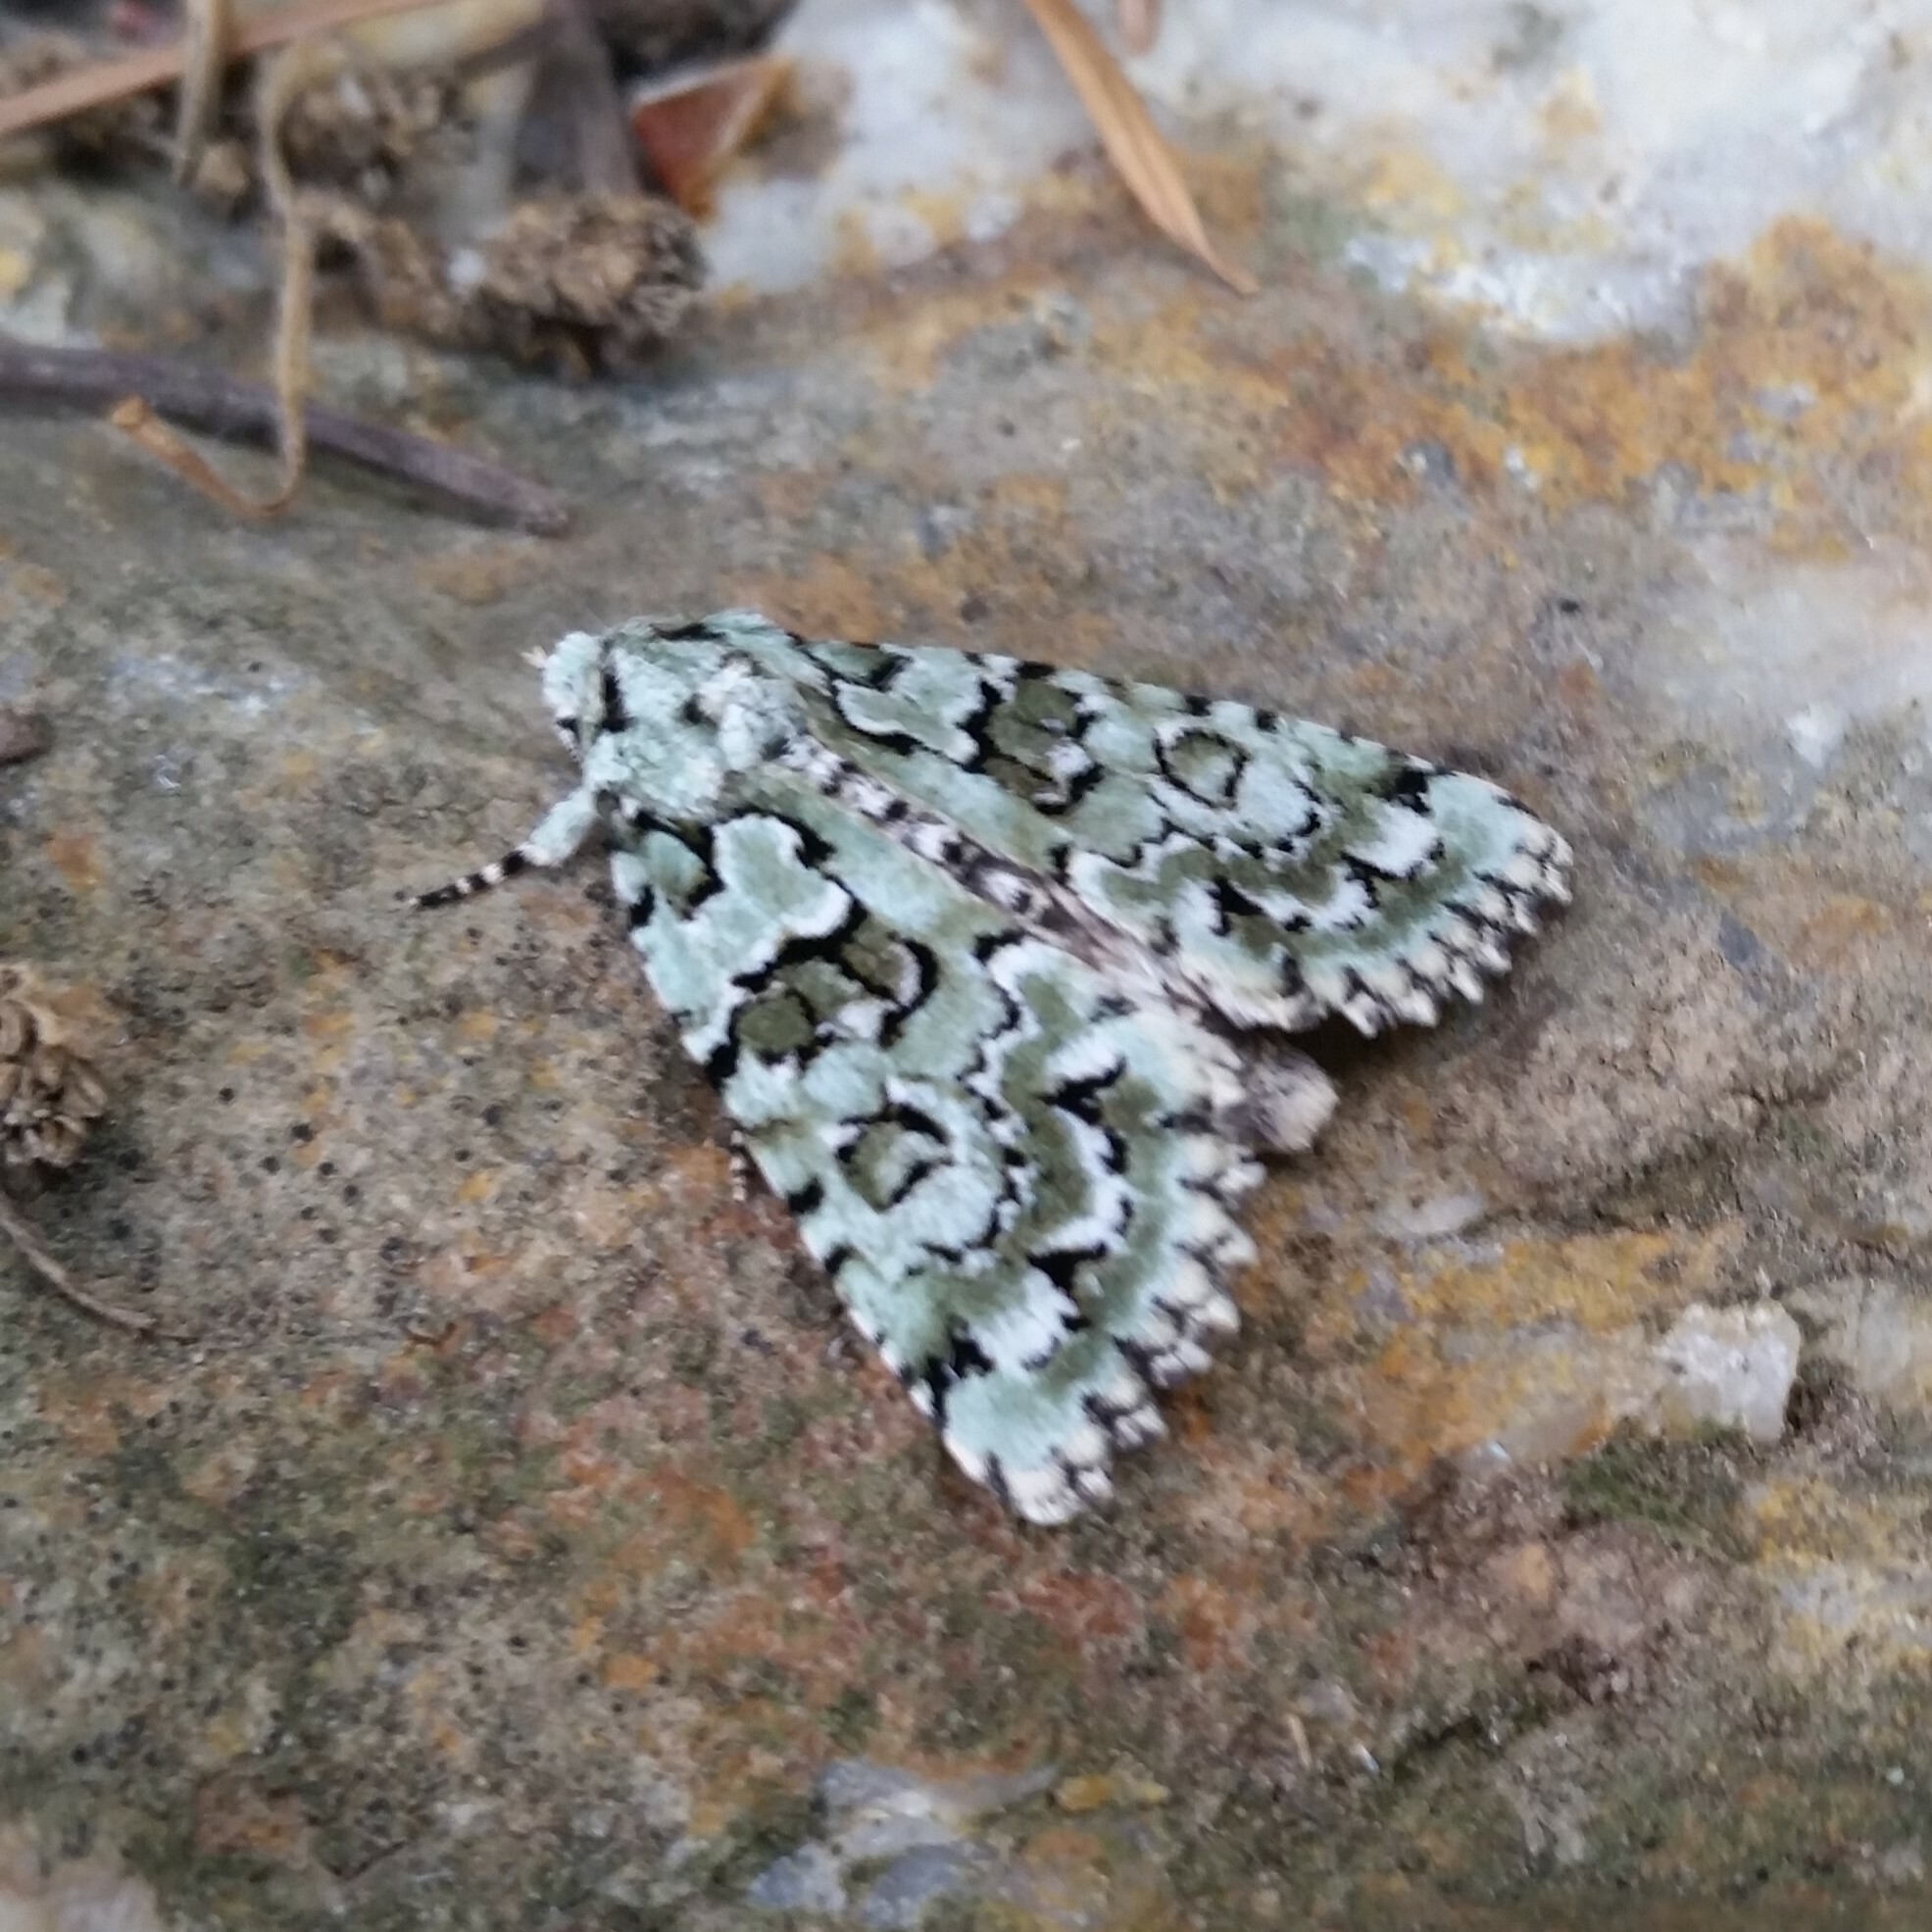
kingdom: Animalia
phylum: Arthropoda
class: Insecta
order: Lepidoptera
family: Noctuidae
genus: Nyctobrya
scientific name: Nyctobrya muralis
